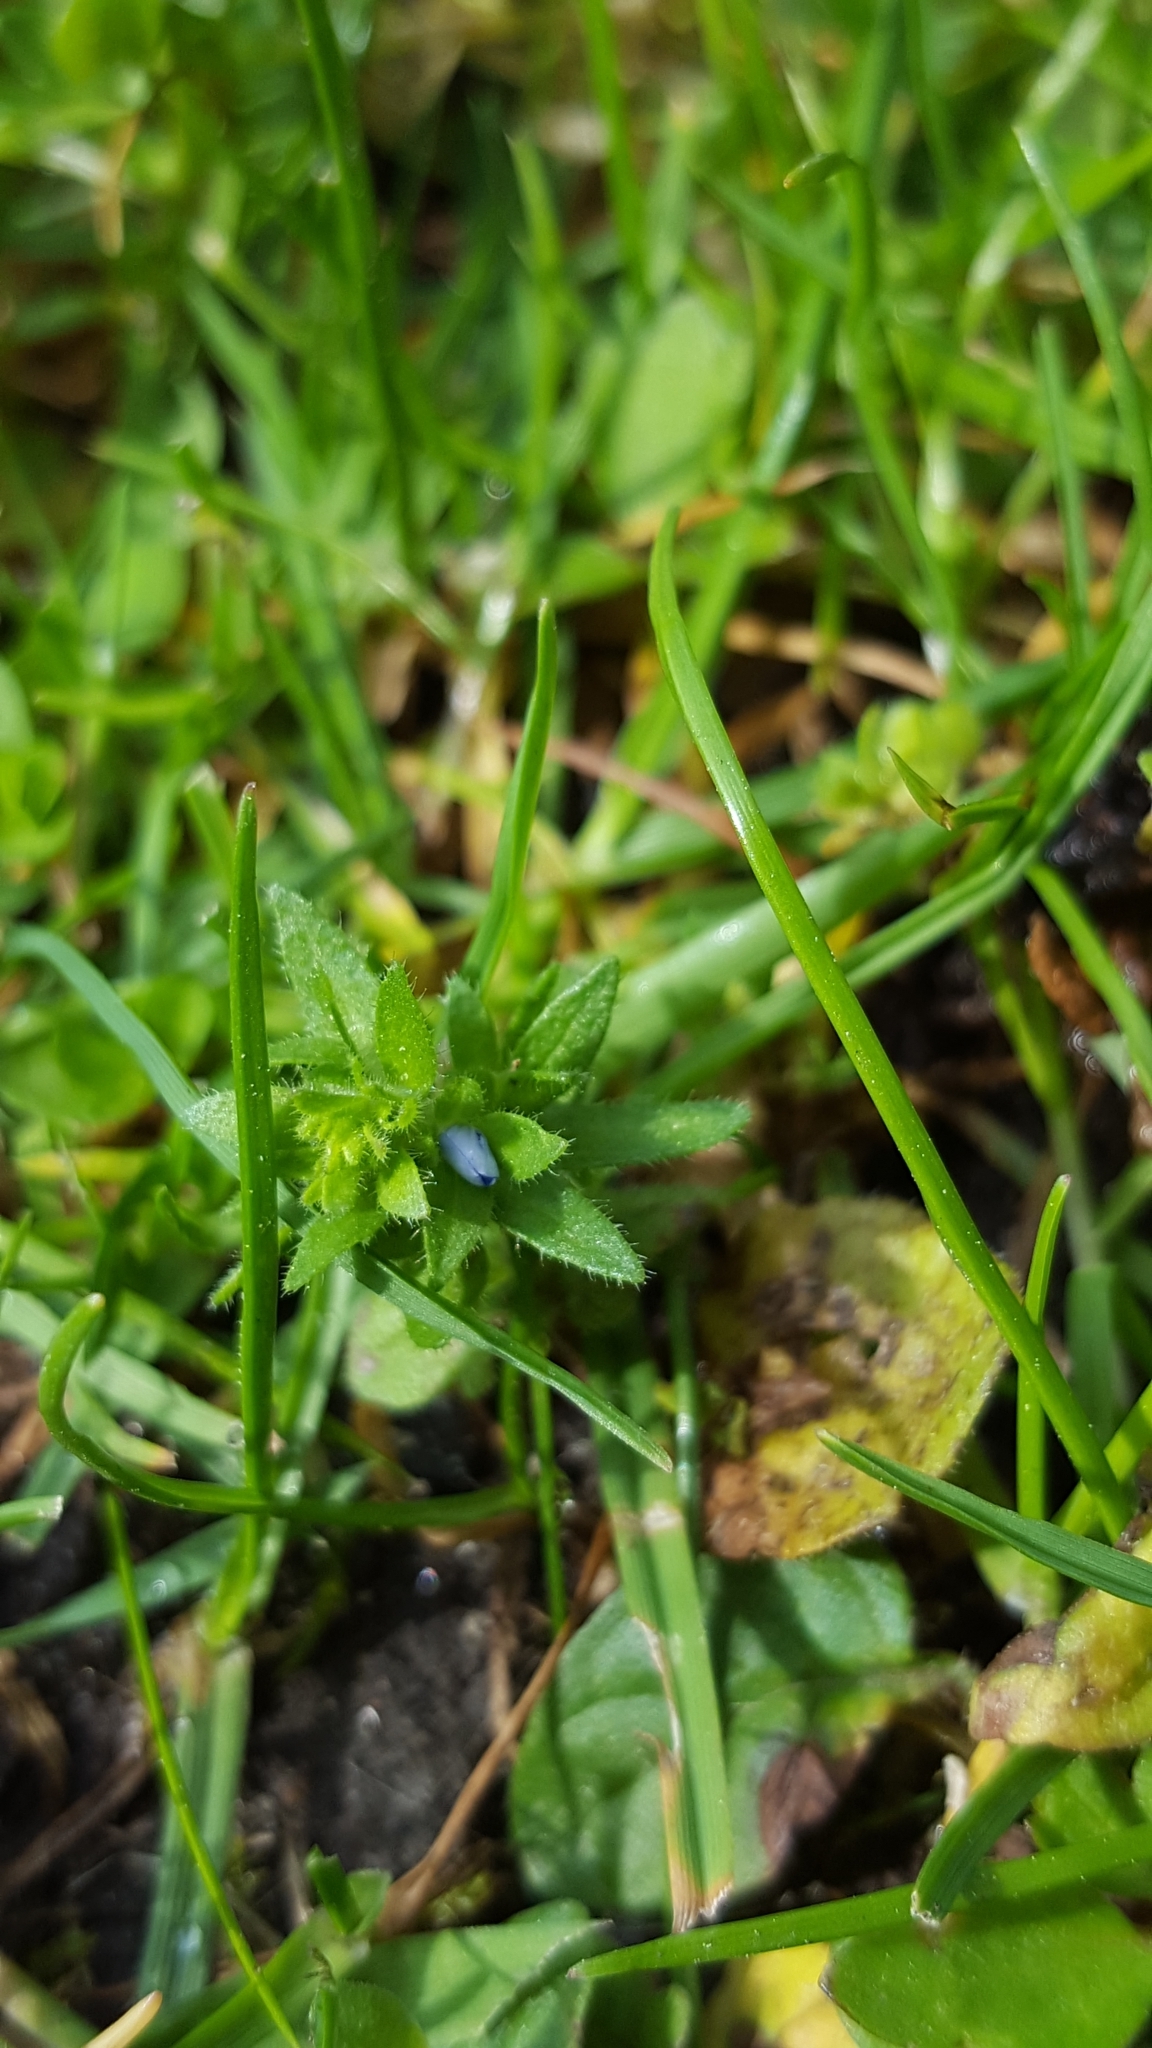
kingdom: Plantae
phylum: Tracheophyta
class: Magnoliopsida
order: Lamiales
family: Plantaginaceae
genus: Veronica
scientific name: Veronica arvensis
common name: Corn speedwell
